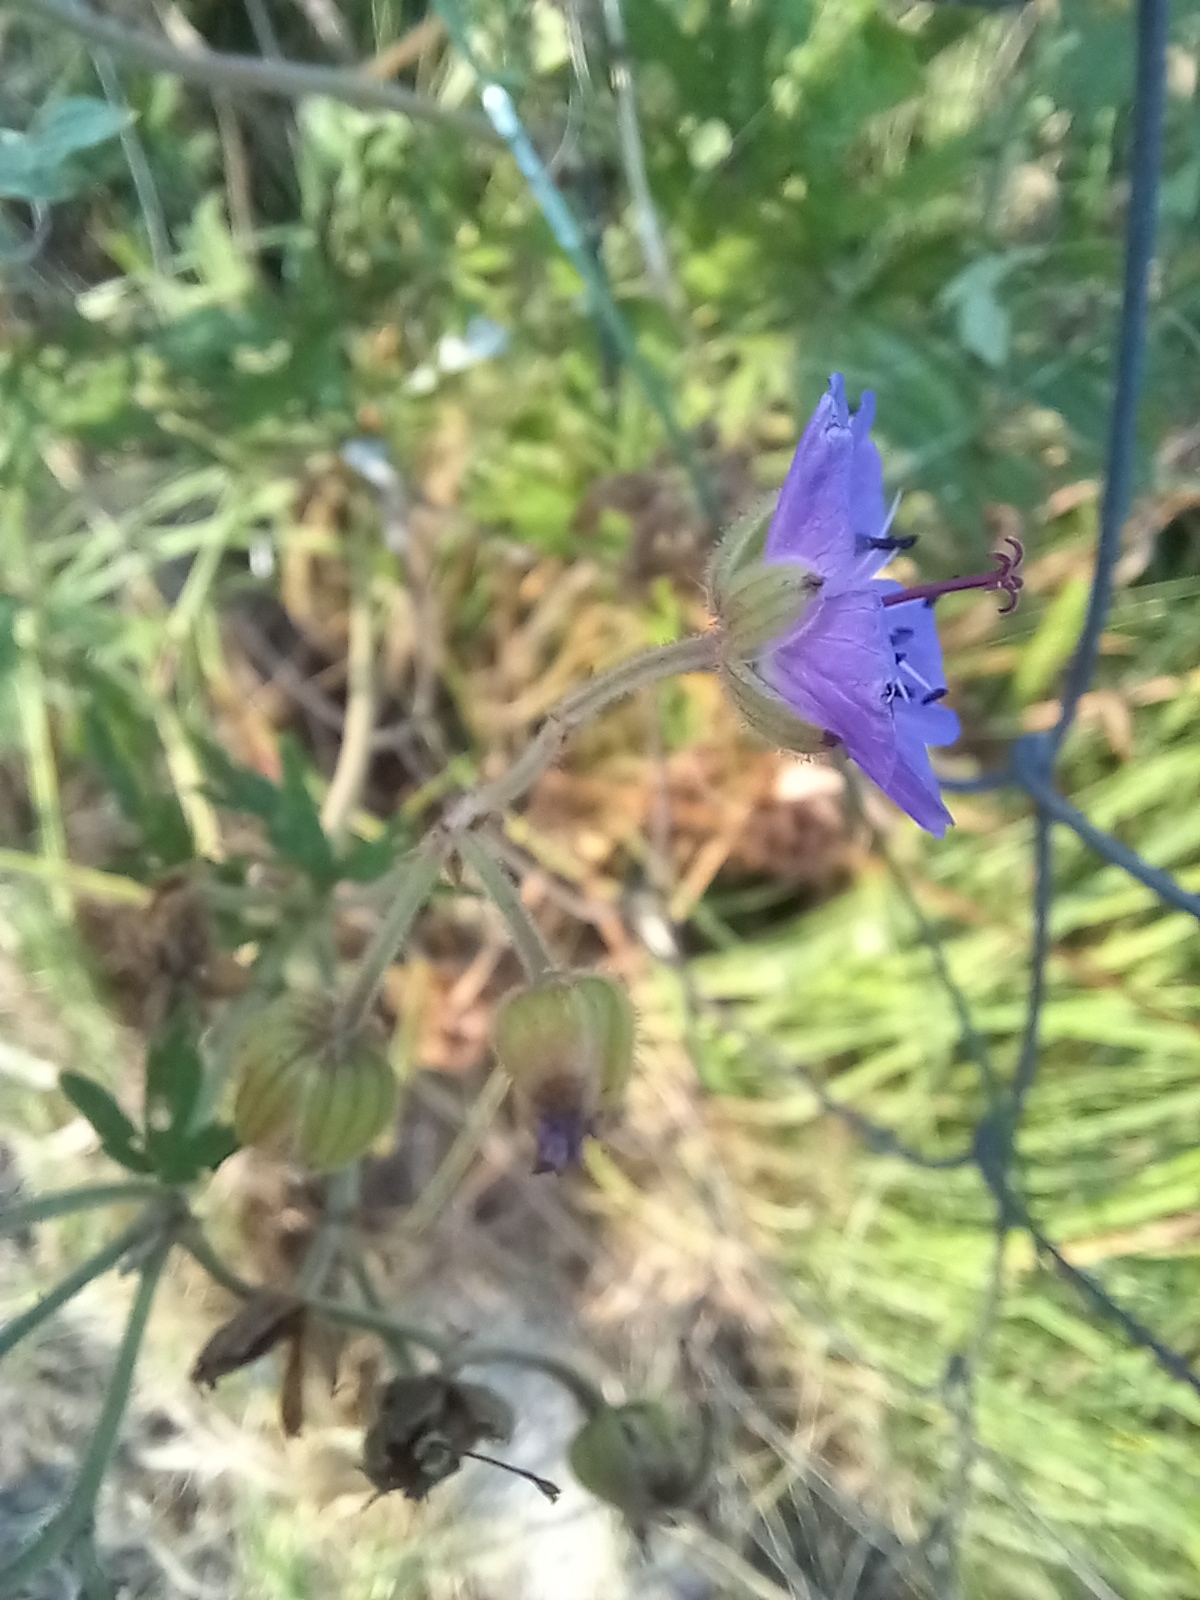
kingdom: Plantae
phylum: Tracheophyta
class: Magnoliopsida
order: Geraniales
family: Geraniaceae
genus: Geranium
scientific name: Geranium pratense
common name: Meadow crane's-bill
